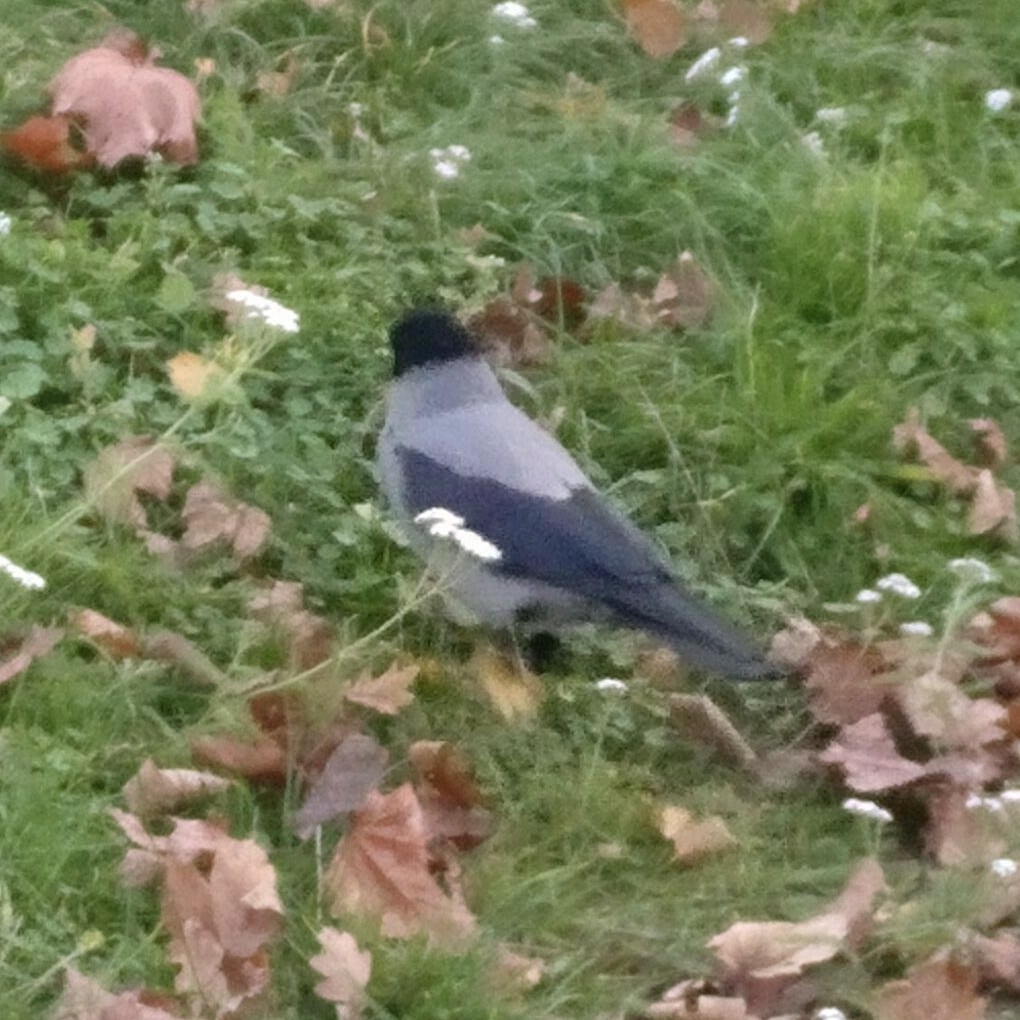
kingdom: Animalia
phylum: Chordata
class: Aves
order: Passeriformes
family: Corvidae
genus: Corvus
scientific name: Corvus cornix
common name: Hooded crow
